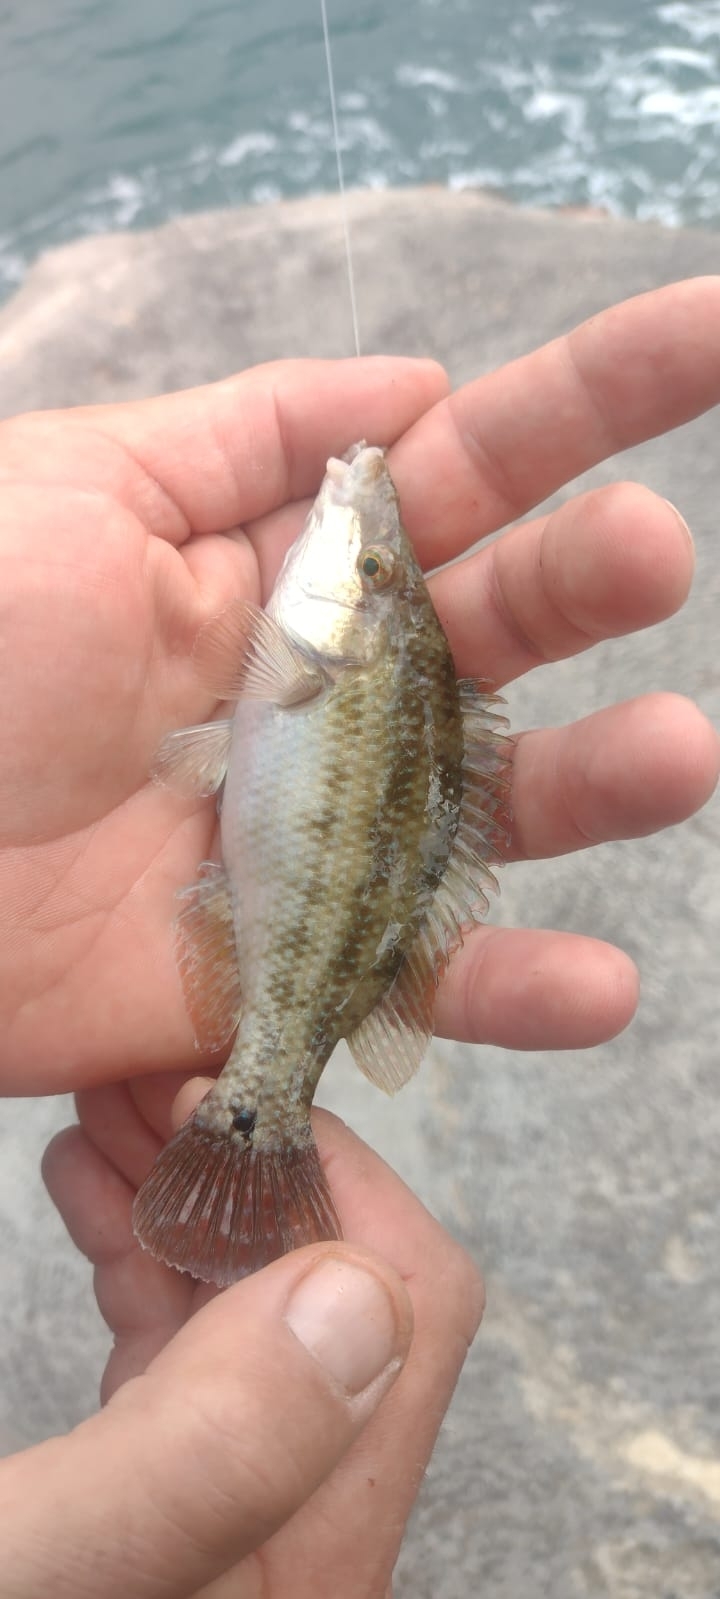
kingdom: Animalia
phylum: Chordata
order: Perciformes
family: Labridae
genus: Symphodus
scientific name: Symphodus tinca
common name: Peacock wrasse
